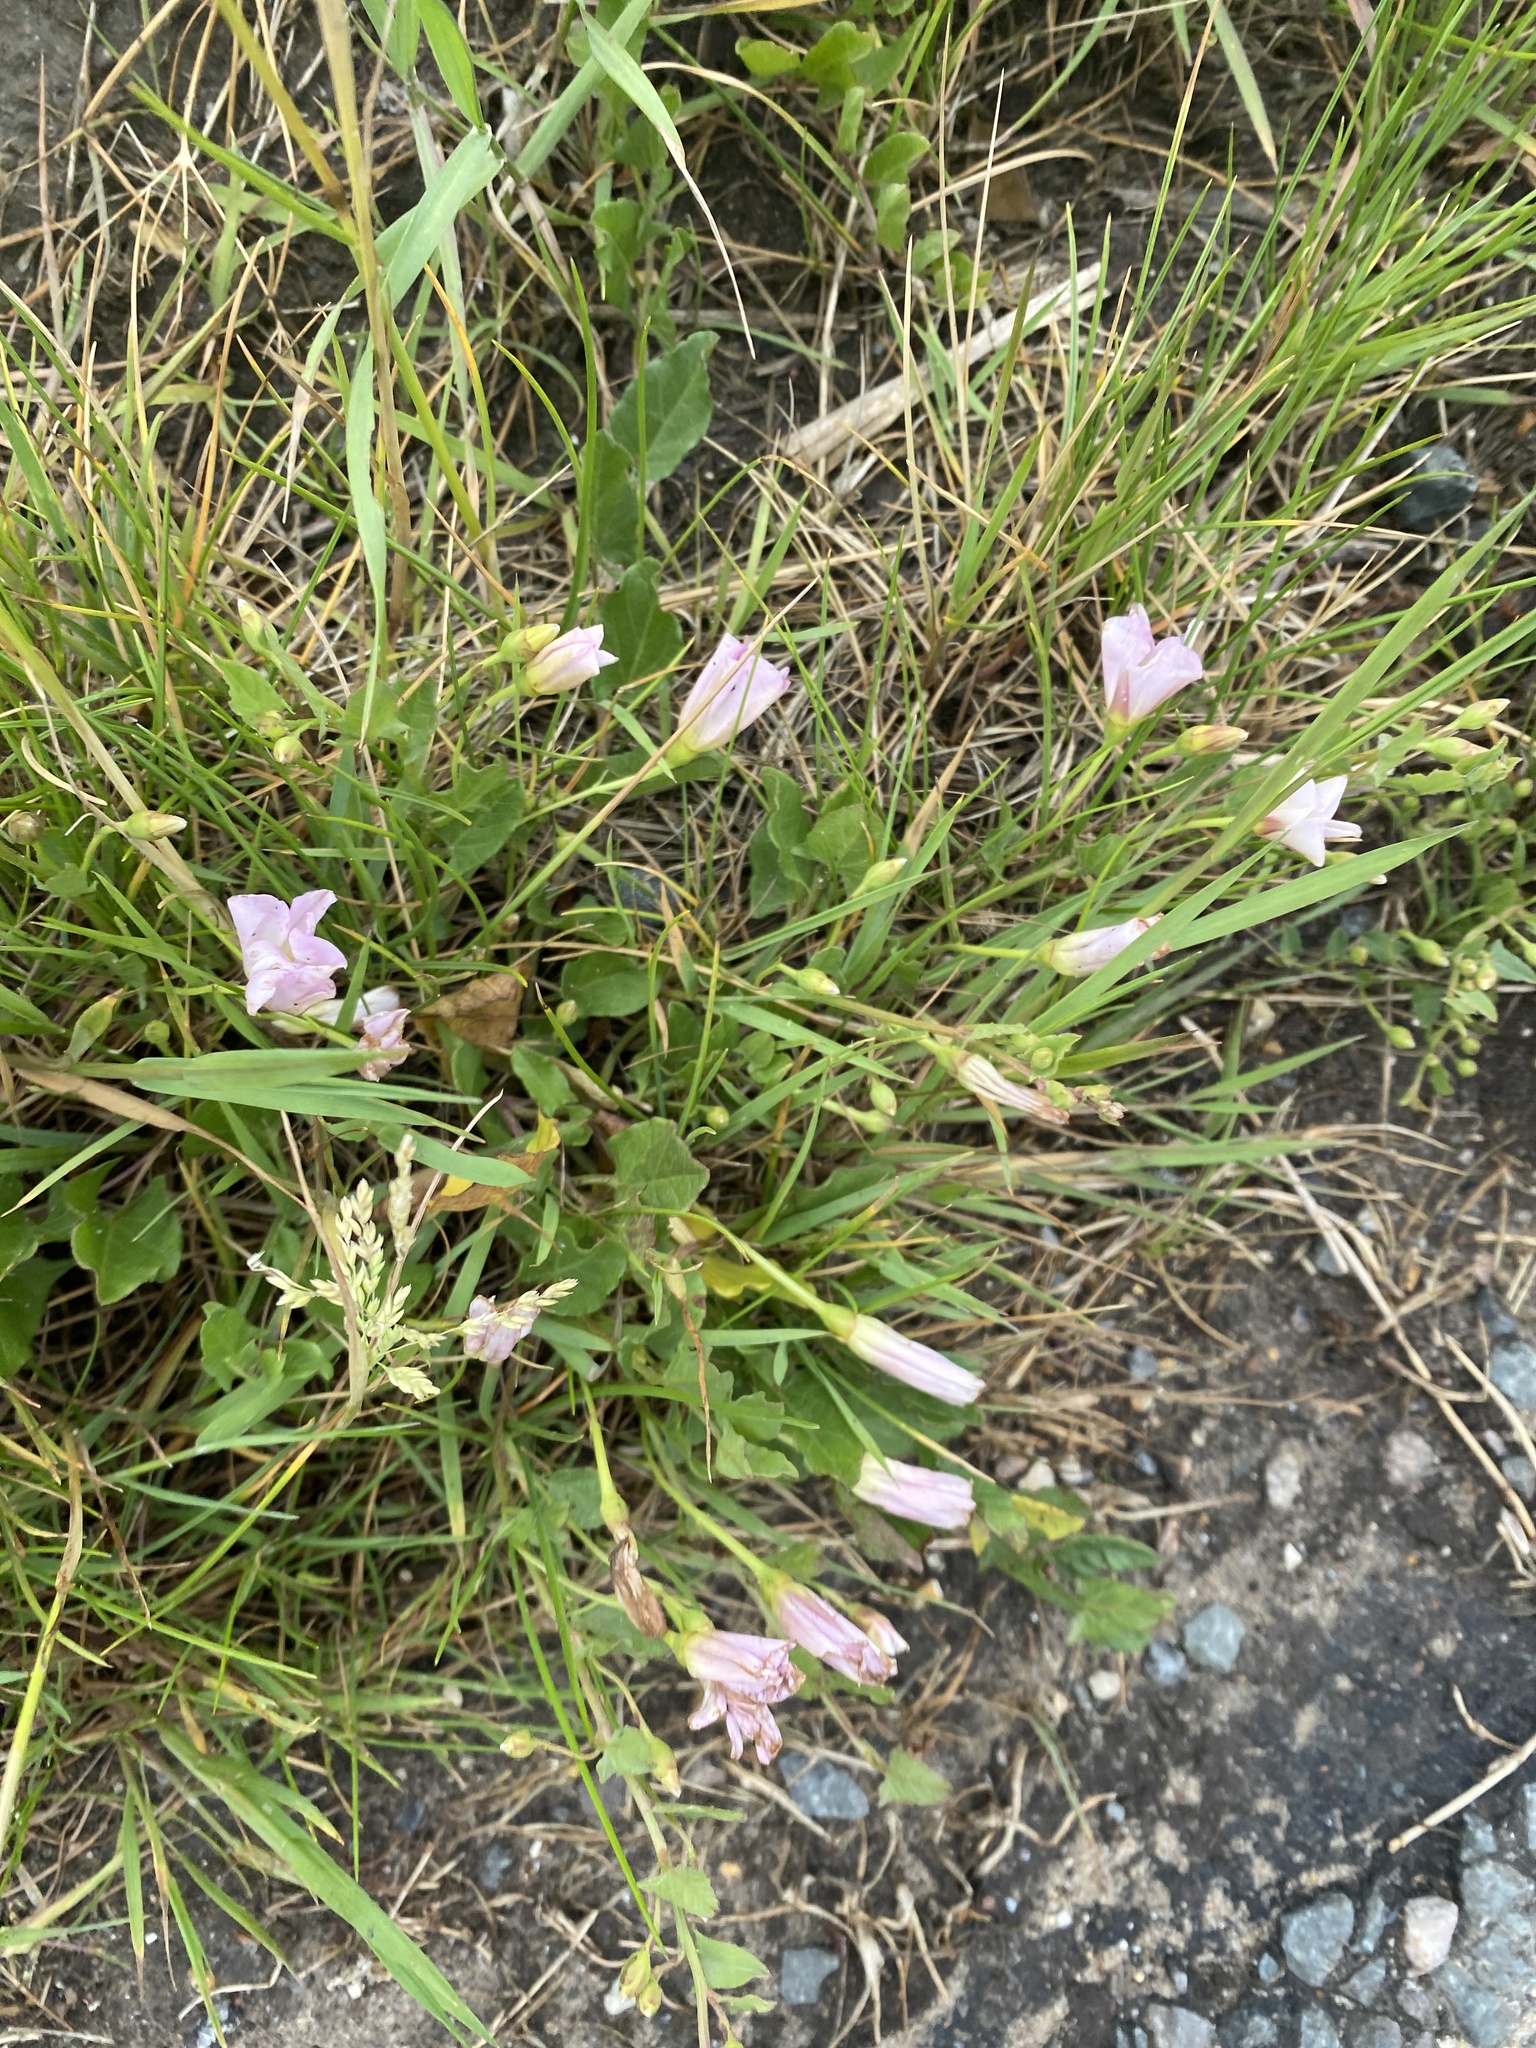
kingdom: Plantae
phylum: Tracheophyta
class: Magnoliopsida
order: Solanales
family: Convolvulaceae
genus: Convolvulus
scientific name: Convolvulus arvensis
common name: Field bindweed
